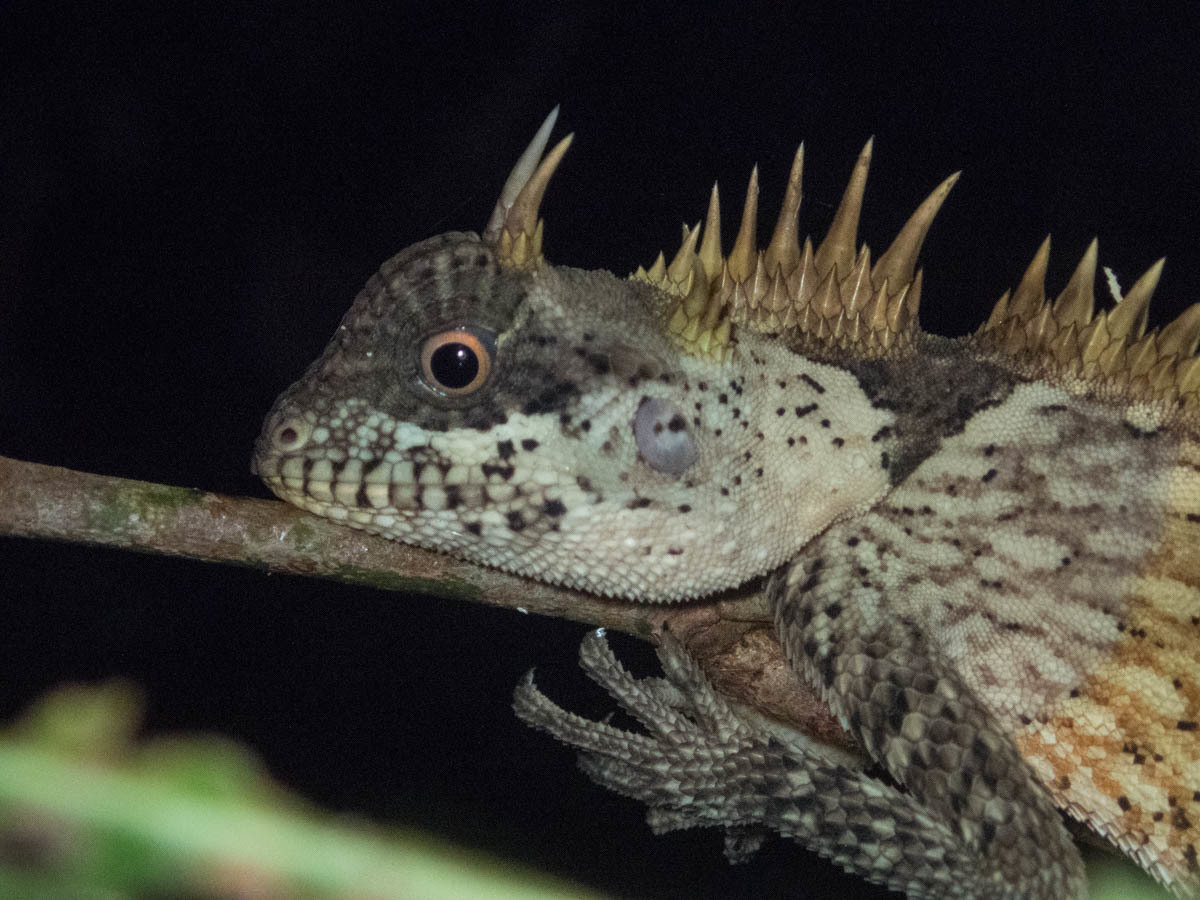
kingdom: Animalia
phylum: Chordata
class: Squamata
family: Agamidae
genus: Acanthosaura
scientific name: Acanthosaura cardamomensis
